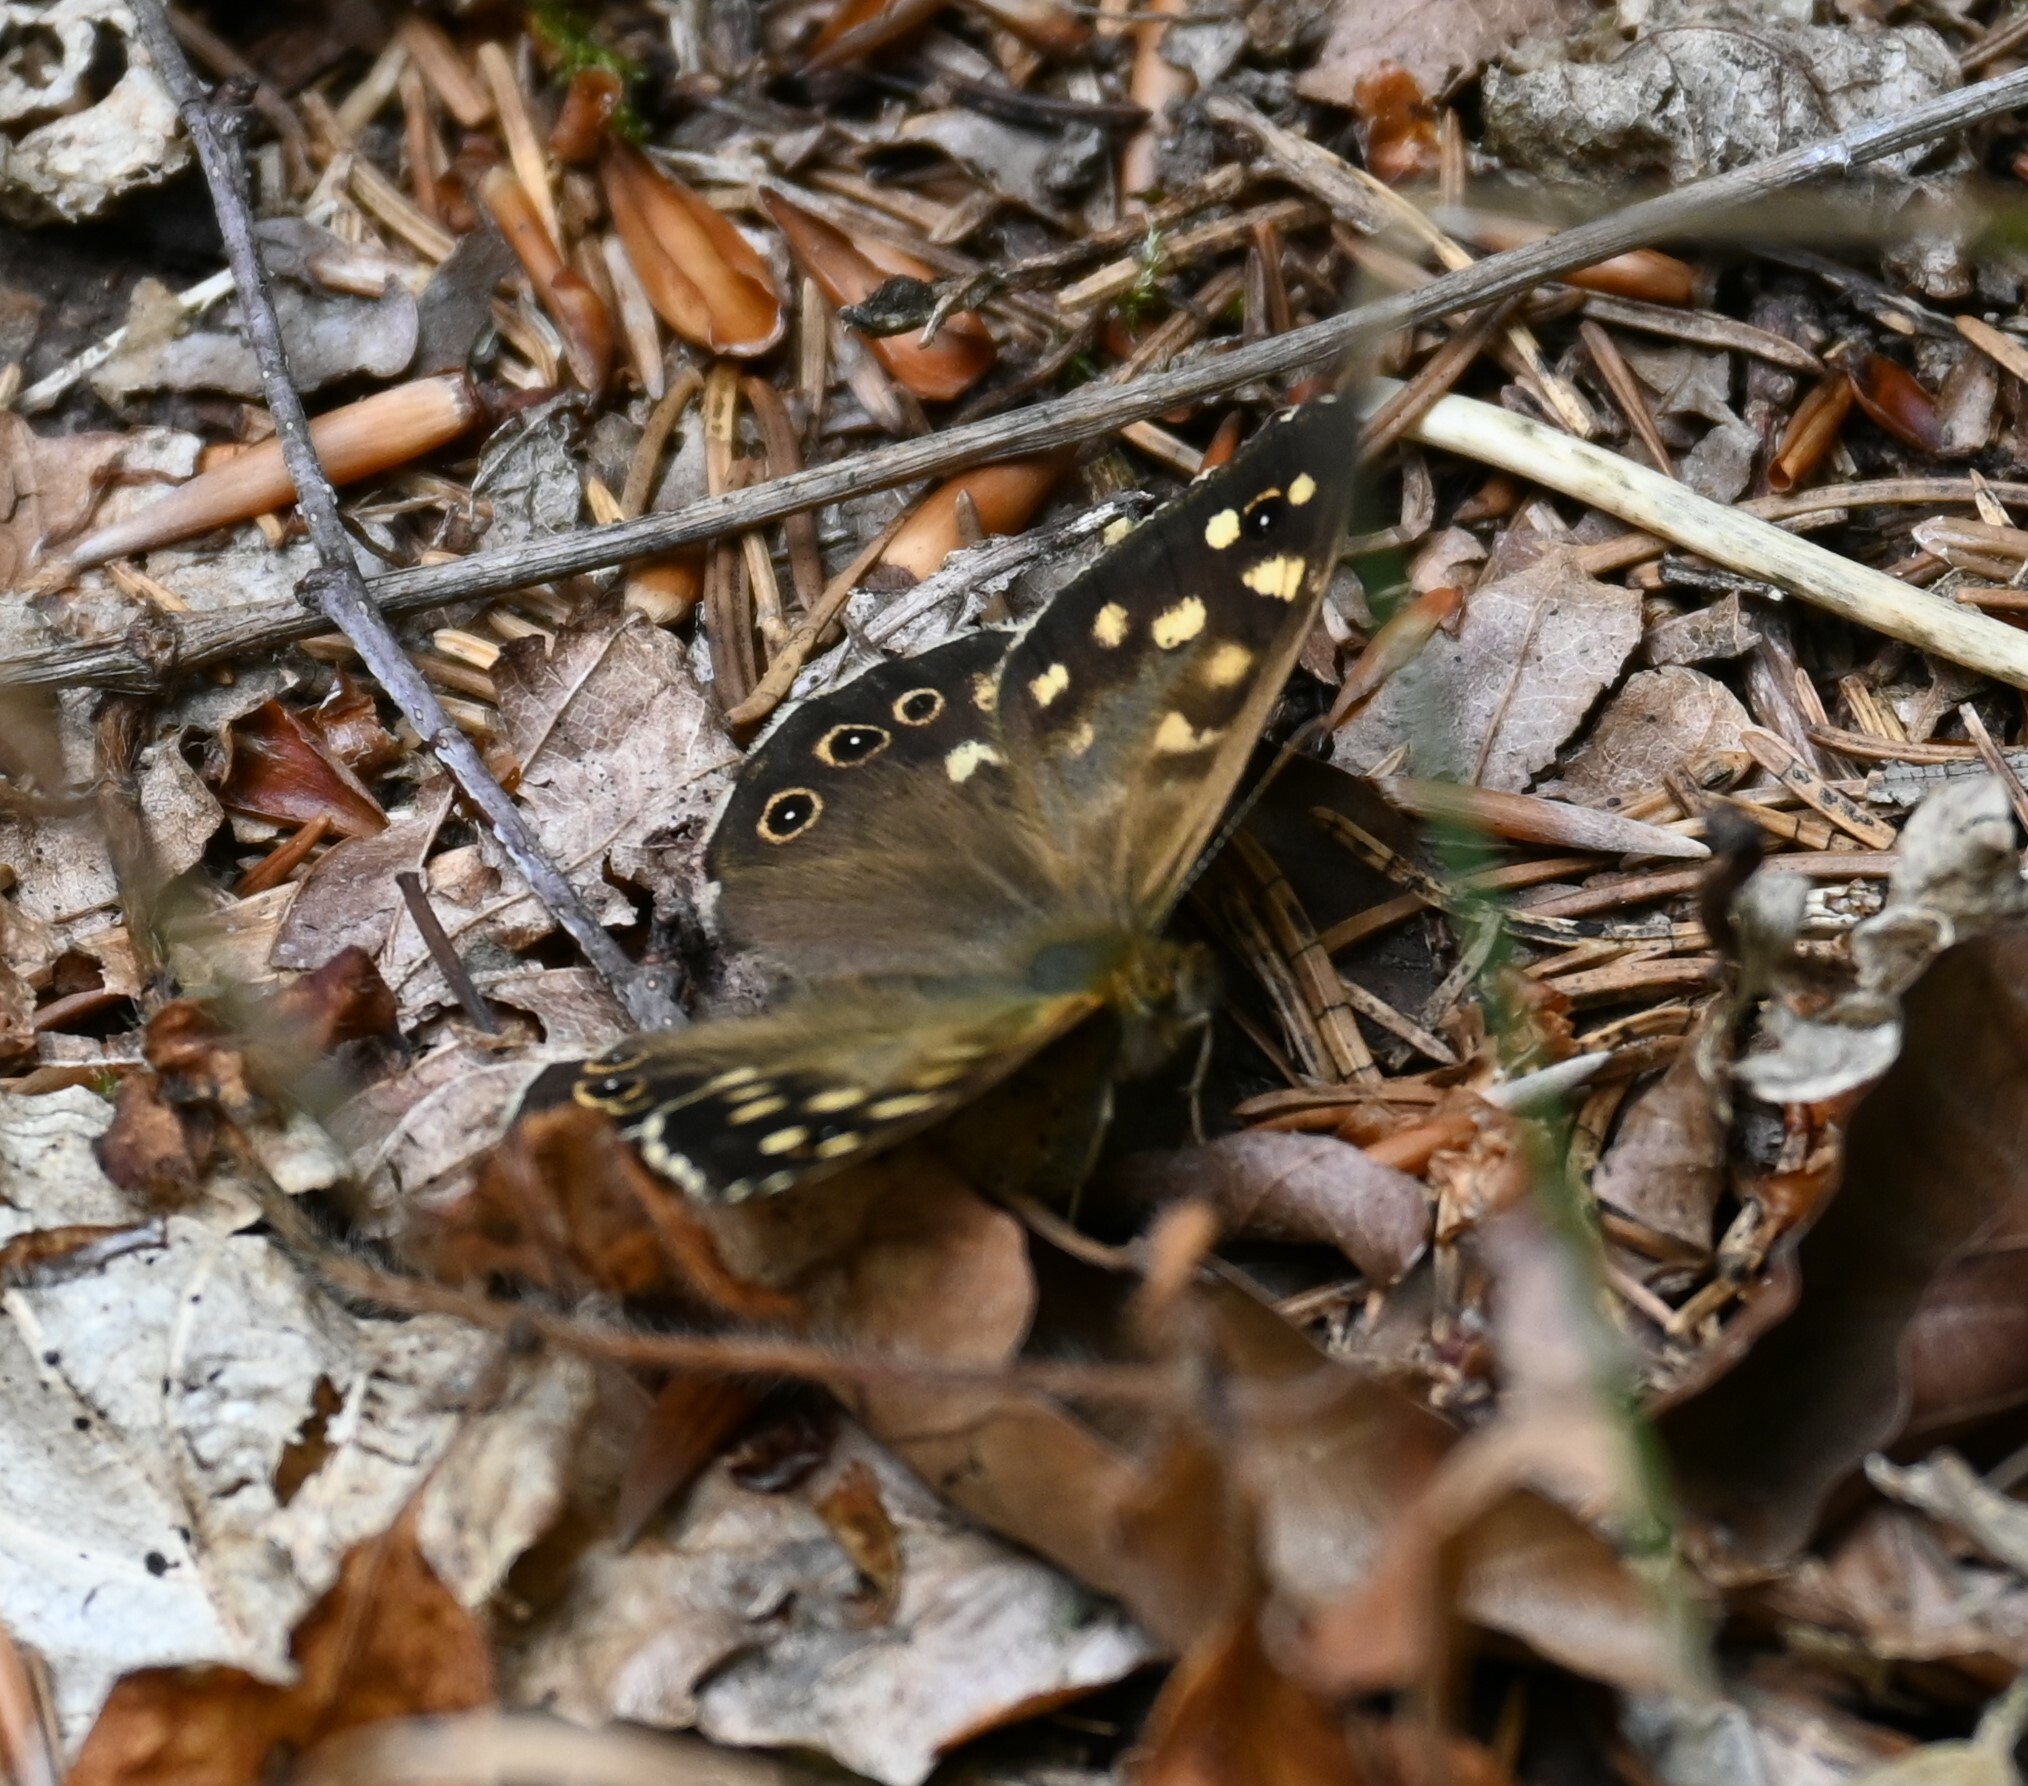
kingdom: Animalia
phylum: Arthropoda
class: Insecta
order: Lepidoptera
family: Nymphalidae
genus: Pararge
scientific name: Pararge aegeria
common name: Speckled wood
